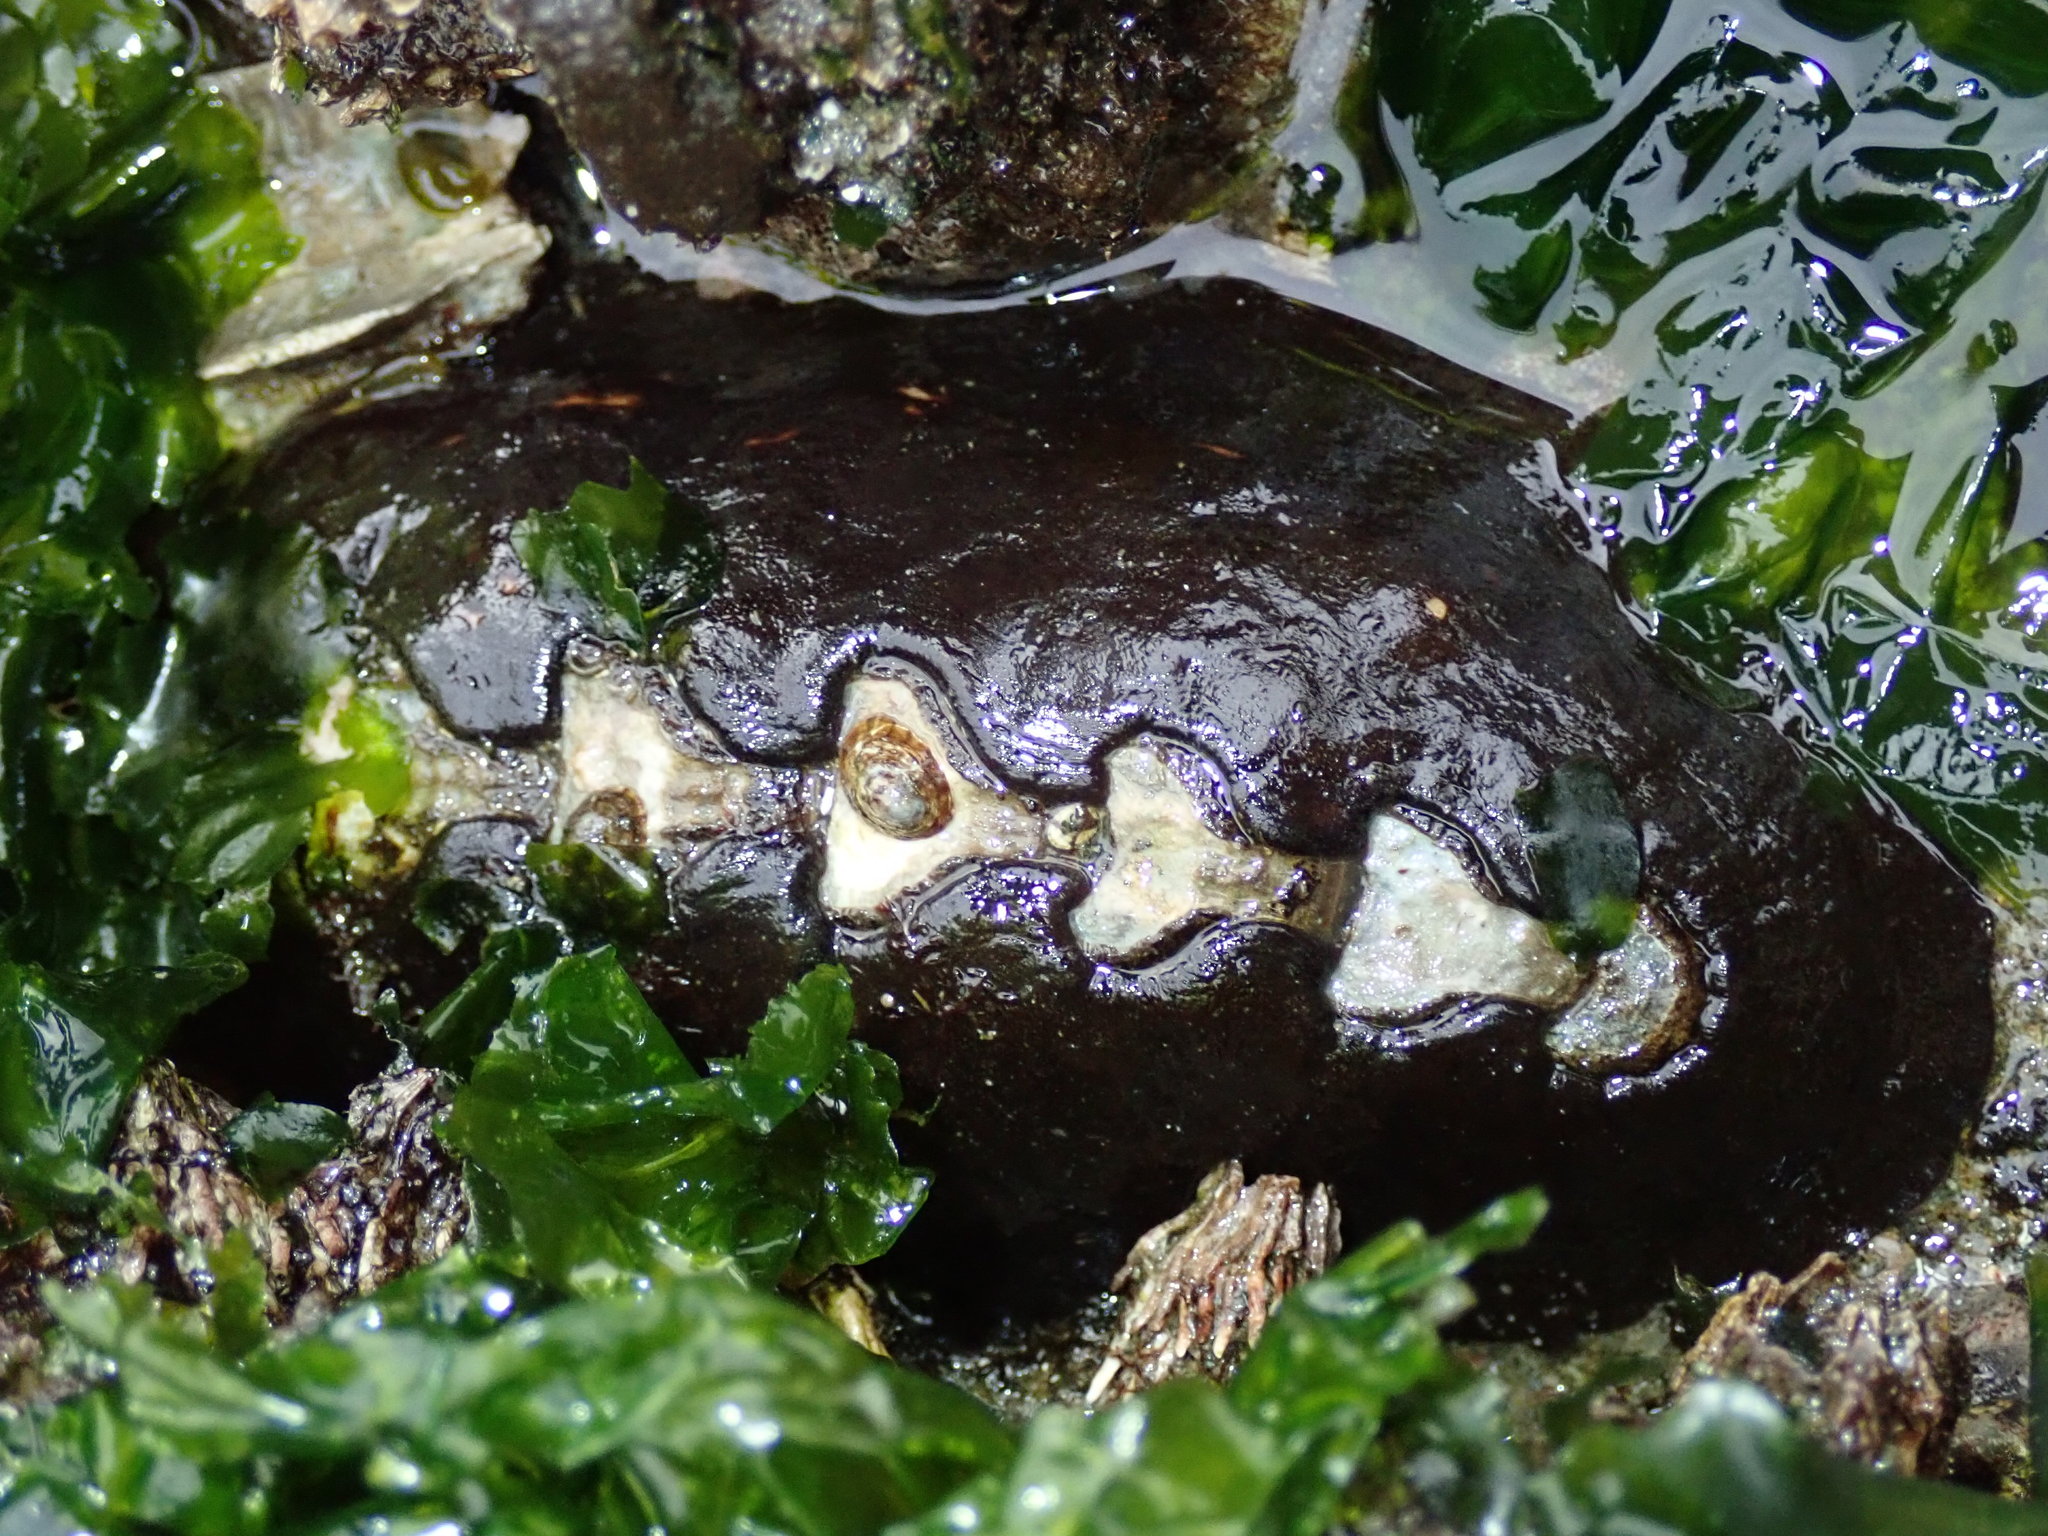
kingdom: Animalia
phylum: Mollusca
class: Polyplacophora
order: Chitonida
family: Mopaliidae
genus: Katharina
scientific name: Katharina tunicata
